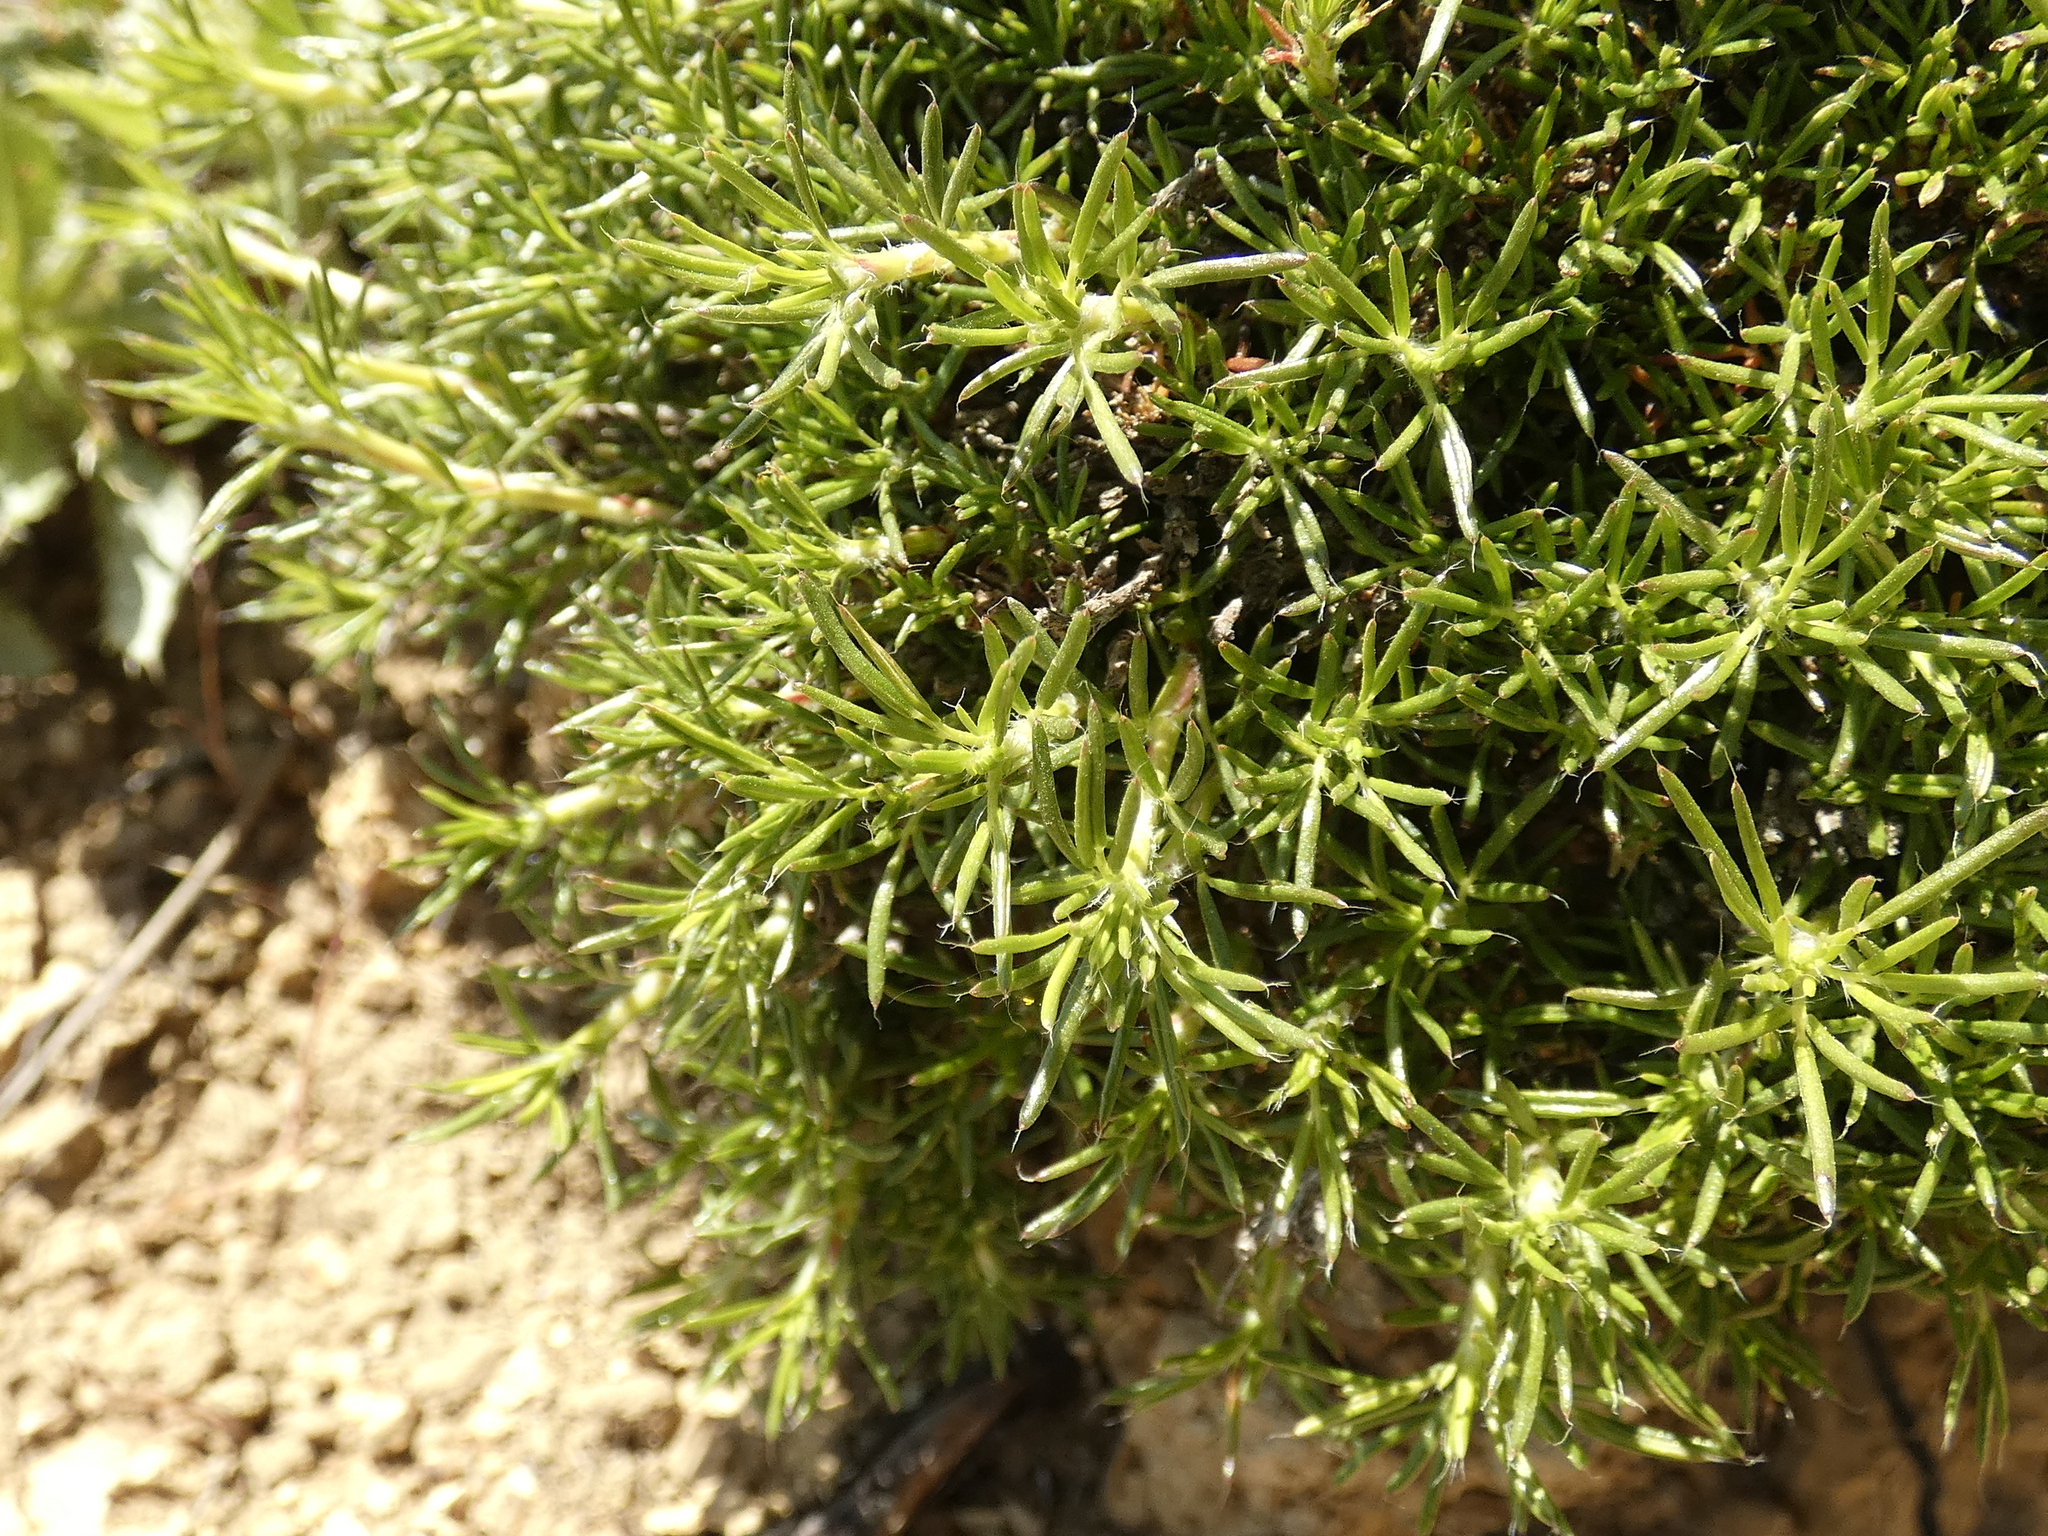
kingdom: Plantae
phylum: Tracheophyta
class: Magnoliopsida
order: Rosales
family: Rosaceae
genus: Margyricarpus
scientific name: Margyricarpus pinnatus
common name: Pearlfruit
